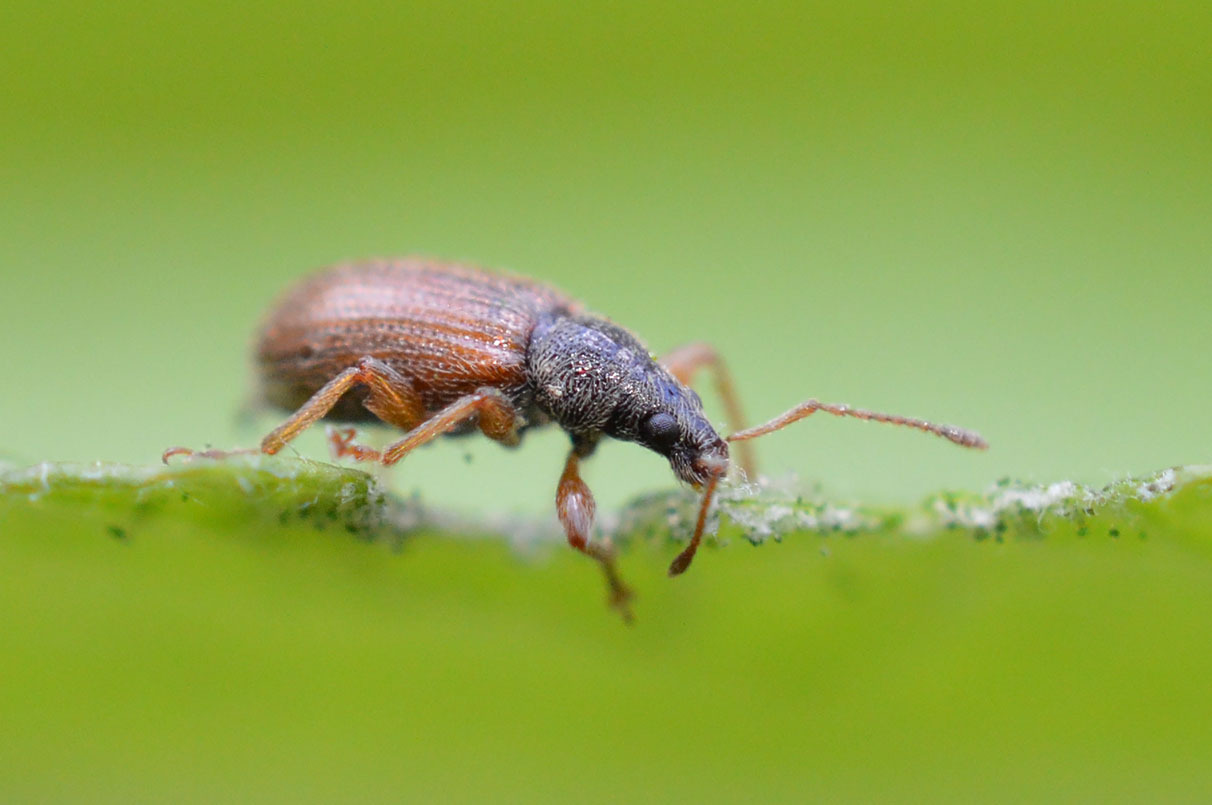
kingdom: Animalia
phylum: Arthropoda
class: Insecta
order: Coleoptera
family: Curculionidae
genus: Phyllobius
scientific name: Phyllobius oblongus
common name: Brown leaf weevil
